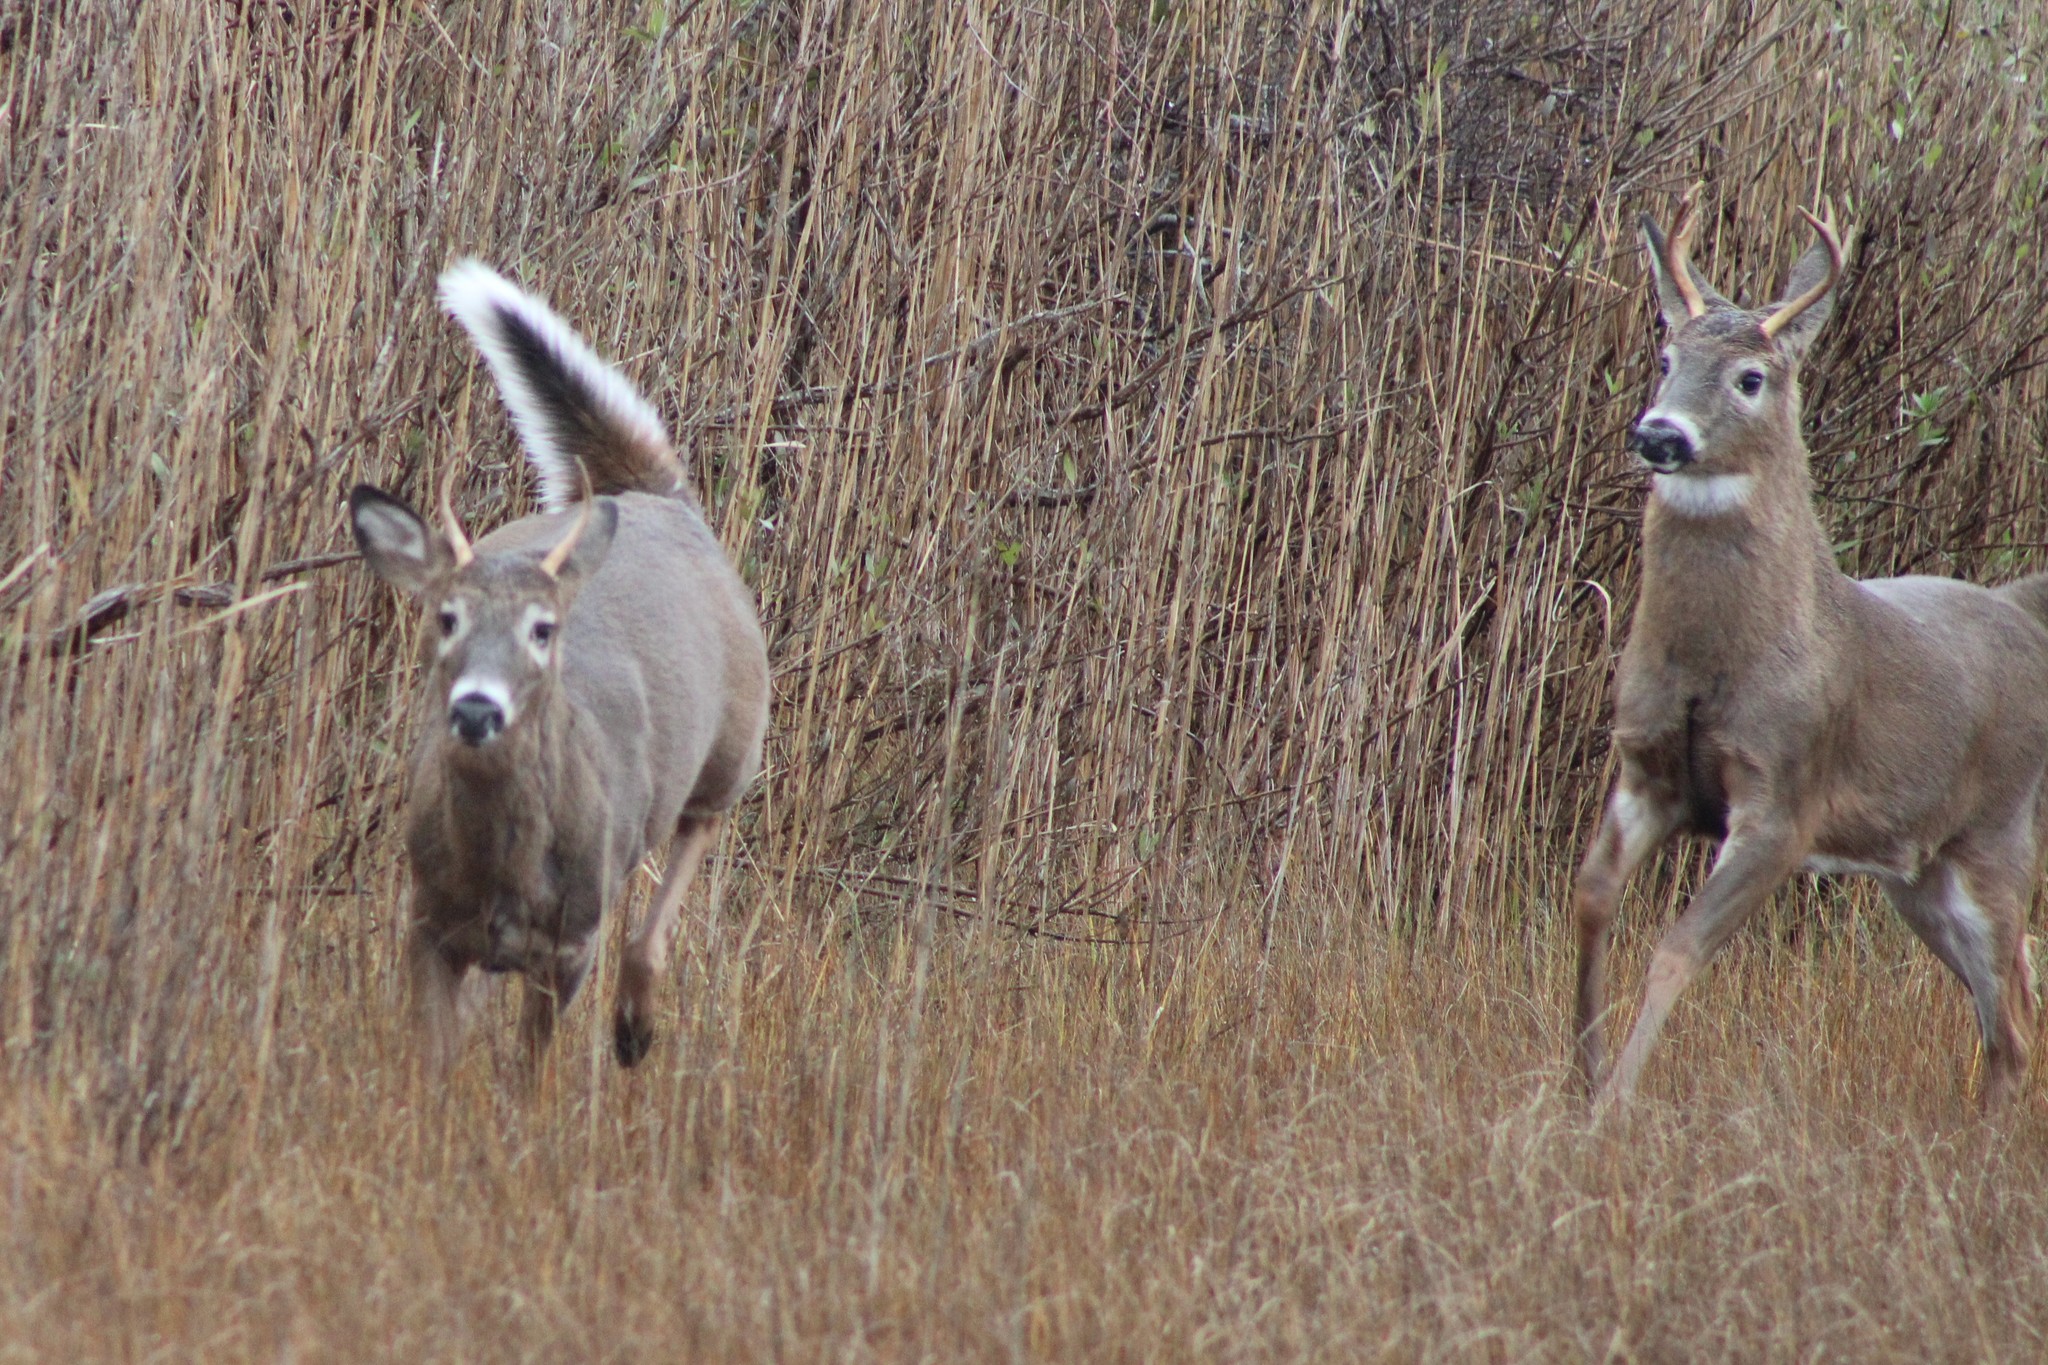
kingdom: Animalia
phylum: Chordata
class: Mammalia
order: Artiodactyla
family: Cervidae
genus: Odocoileus
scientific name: Odocoileus virginianus
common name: White-tailed deer
